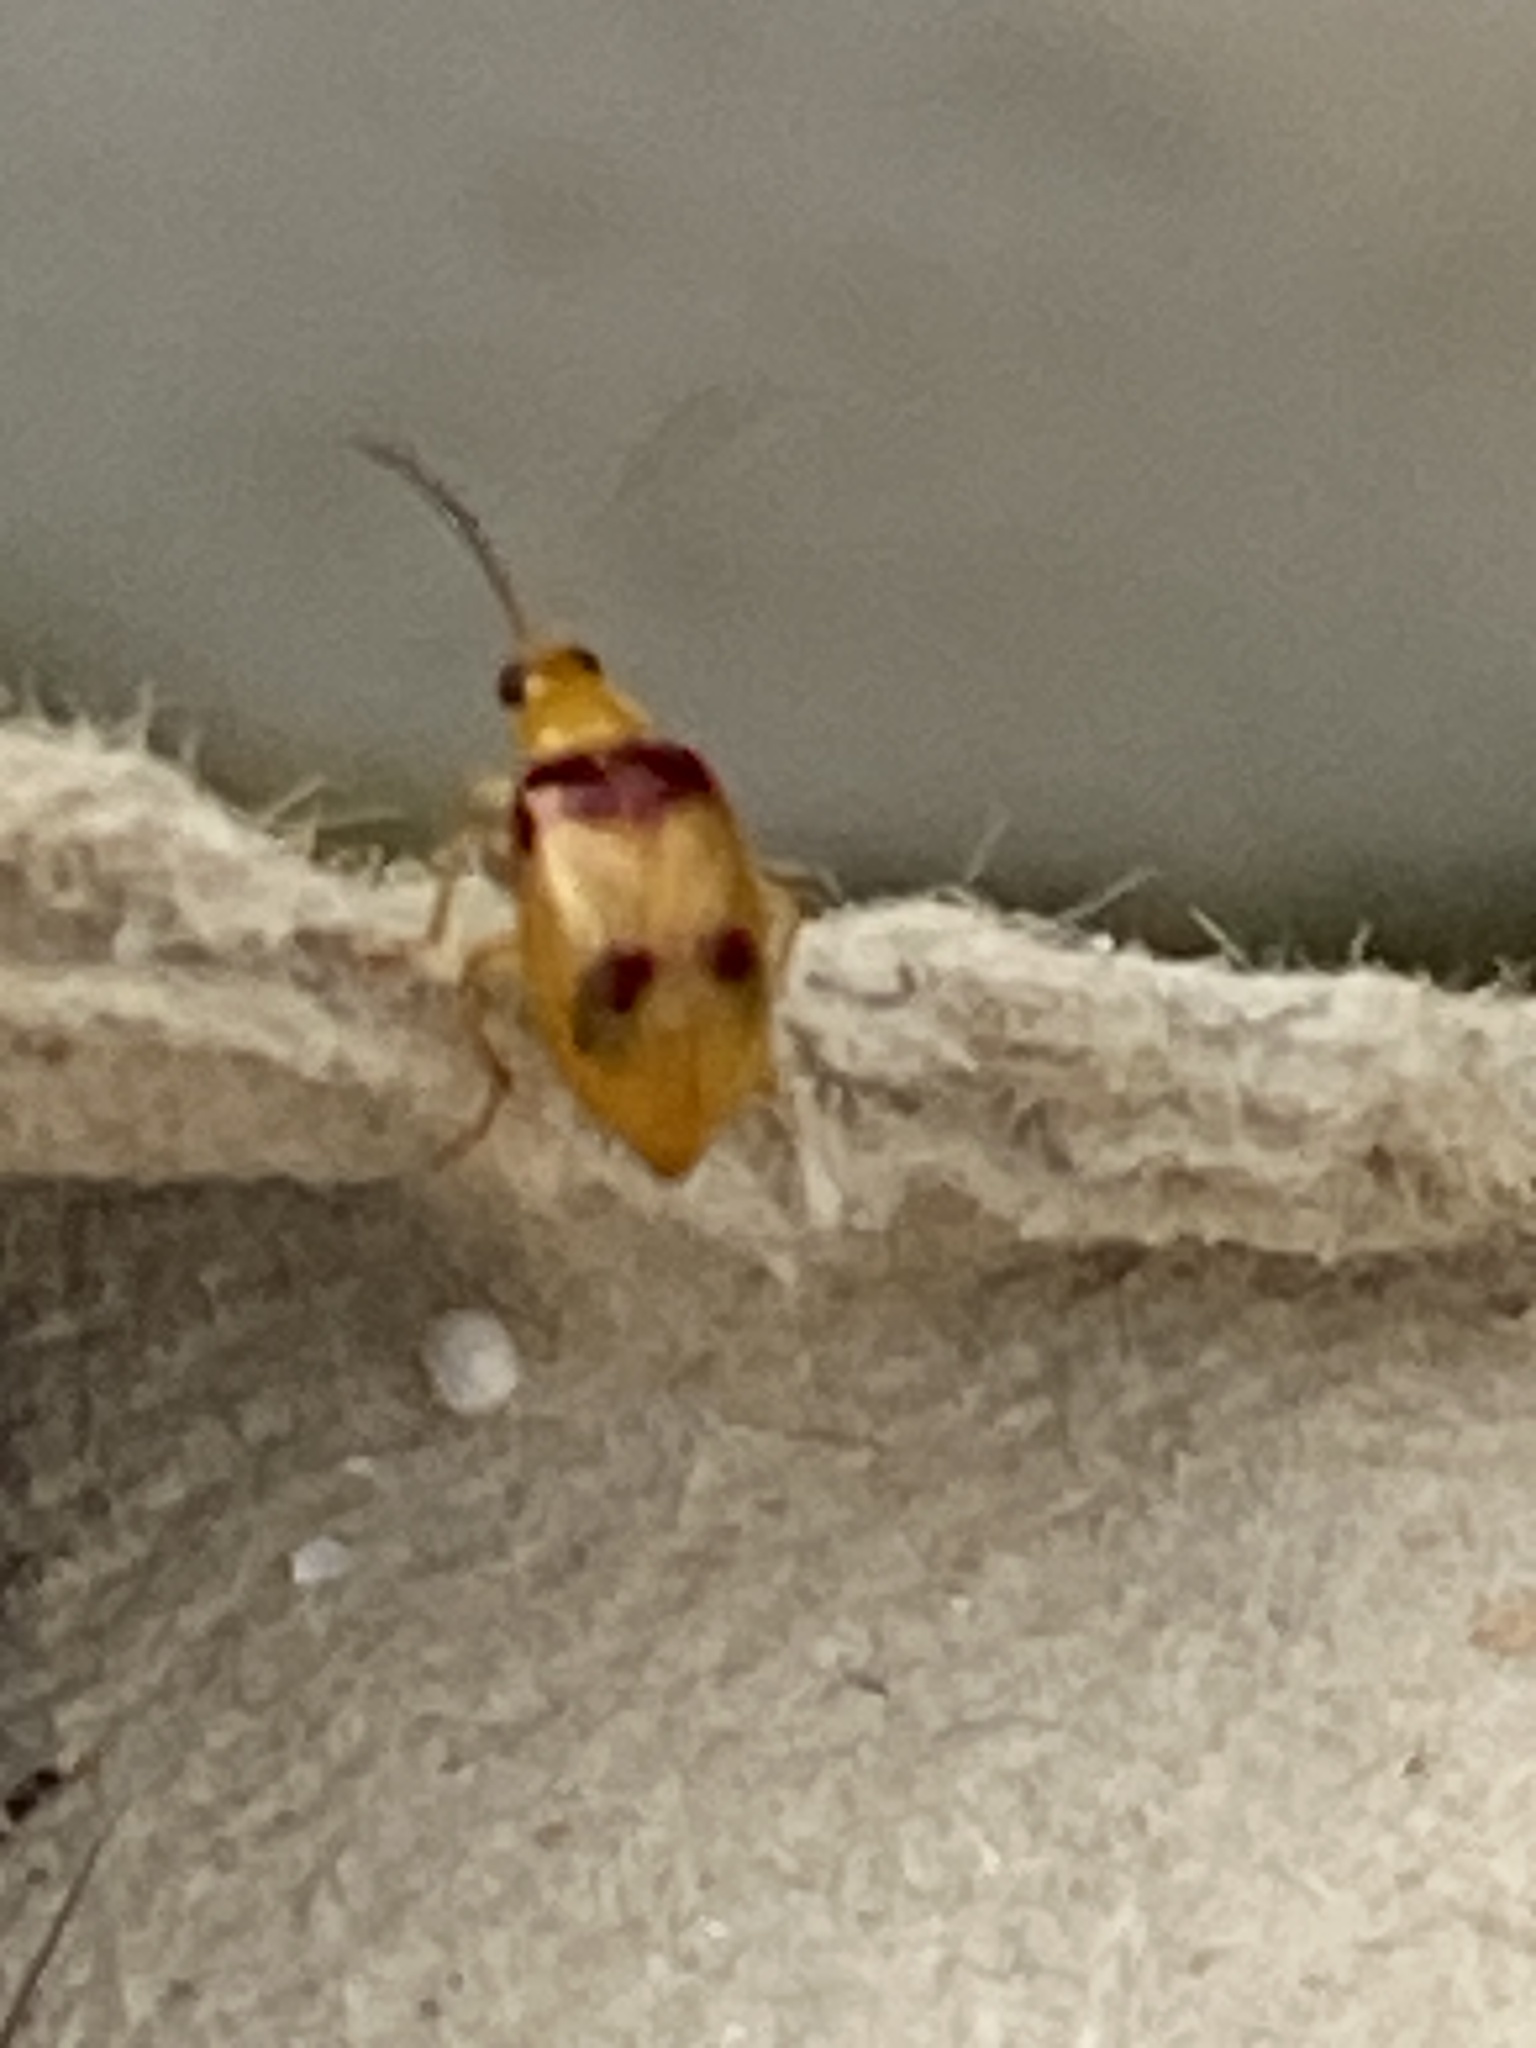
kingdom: Animalia
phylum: Arthropoda
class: Insecta
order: Coleoptera
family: Chrysomelidae
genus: Monolepta
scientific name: Monolepta
